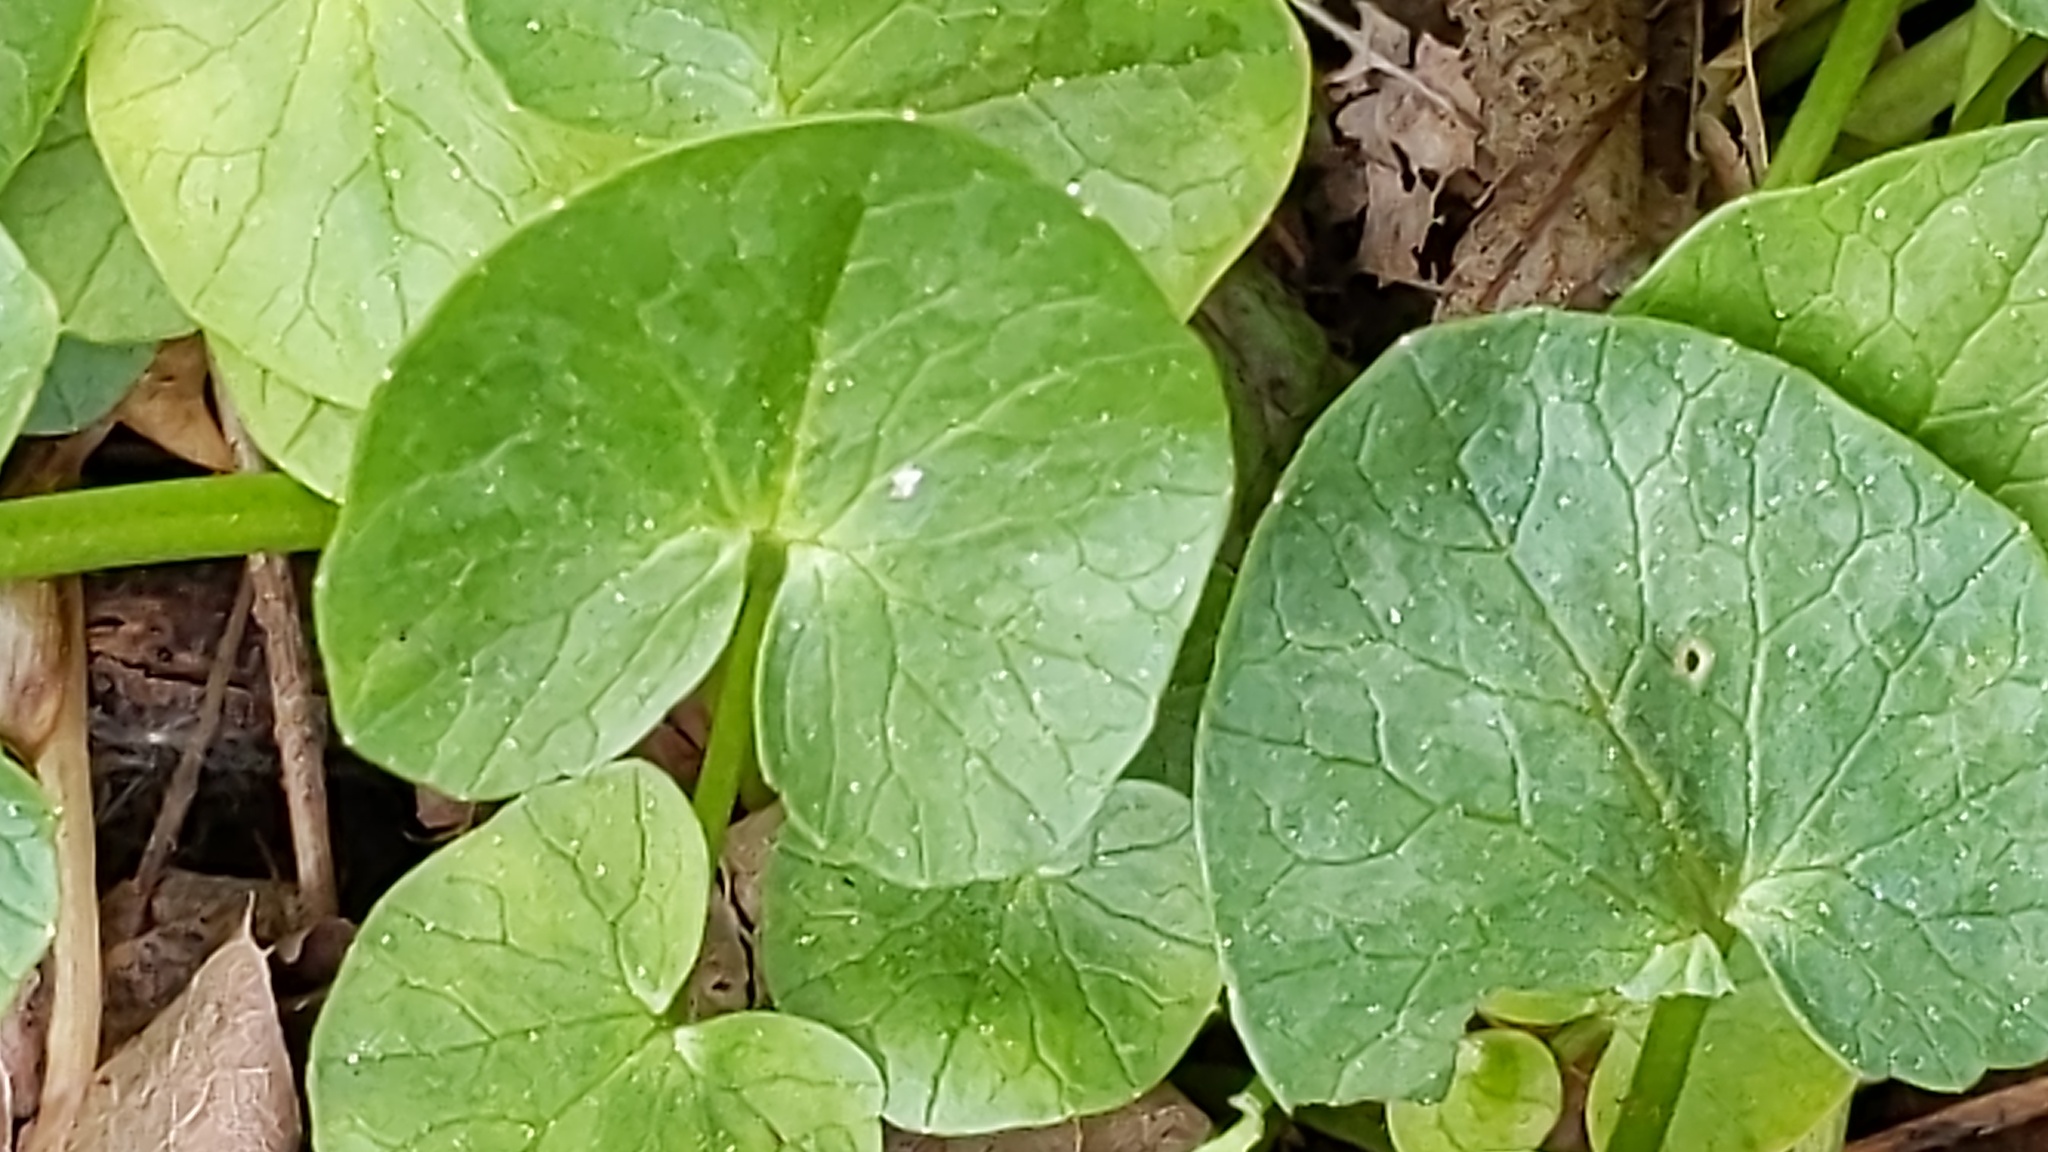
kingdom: Plantae
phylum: Tracheophyta
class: Magnoliopsida
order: Ranunculales
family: Ranunculaceae
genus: Ficaria
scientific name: Ficaria verna
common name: Lesser celandine
